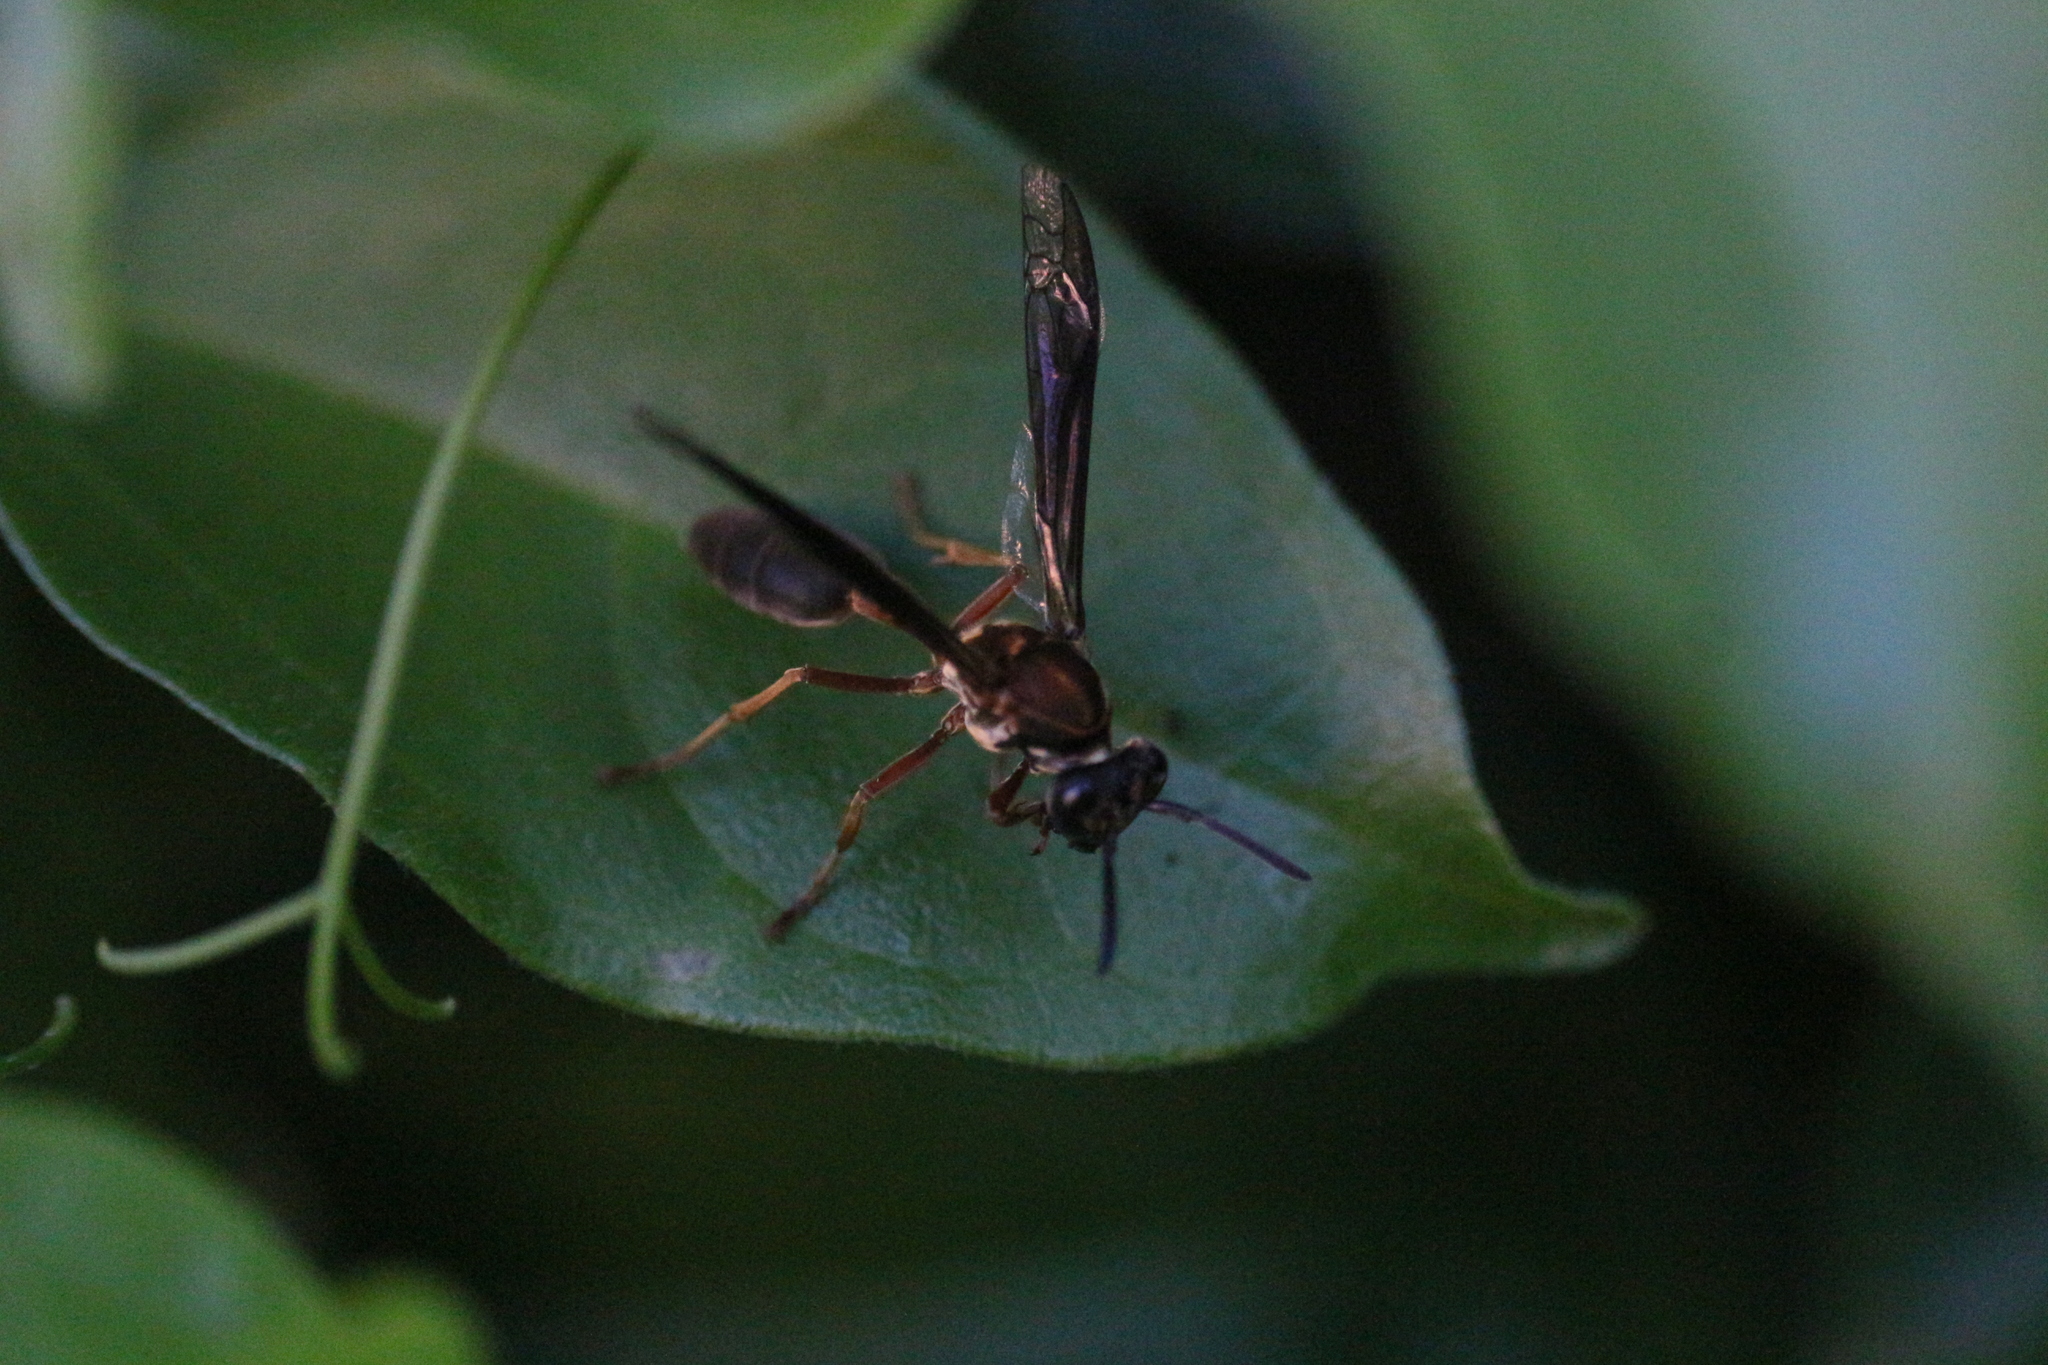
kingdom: Animalia
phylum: Arthropoda
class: Insecta
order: Hymenoptera
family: Eumenidae
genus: Polybia
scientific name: Polybia sericea
